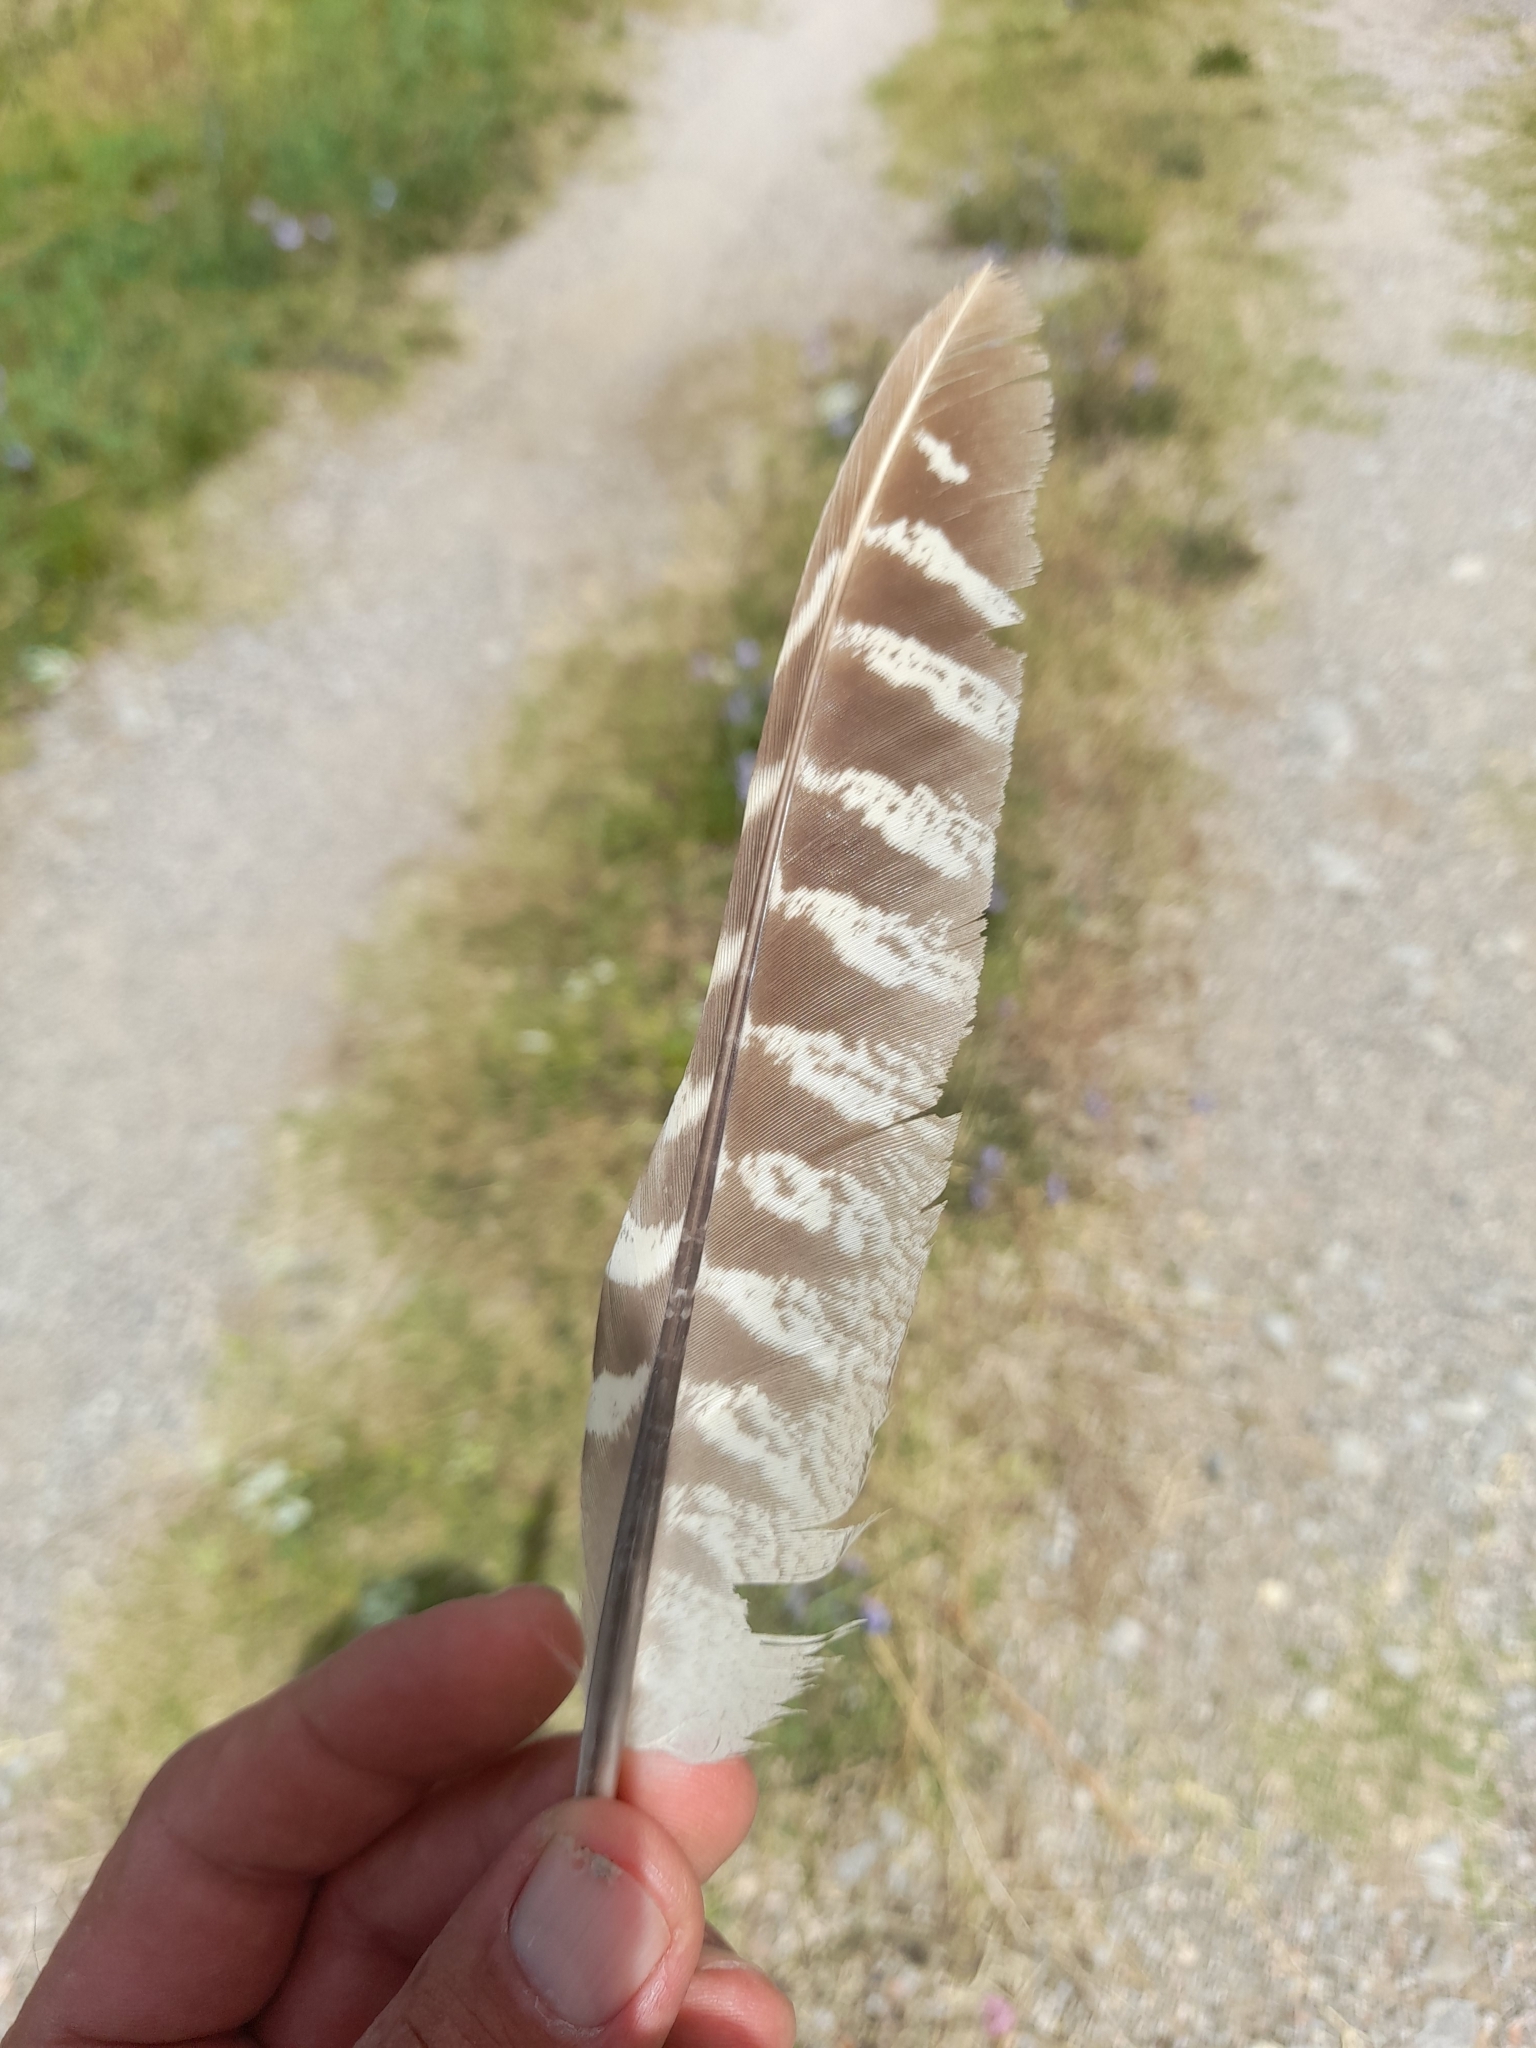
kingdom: Animalia
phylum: Chordata
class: Aves
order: Galliformes
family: Phasianidae
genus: Phasianus
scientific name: Phasianus colchicus
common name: Common pheasant
